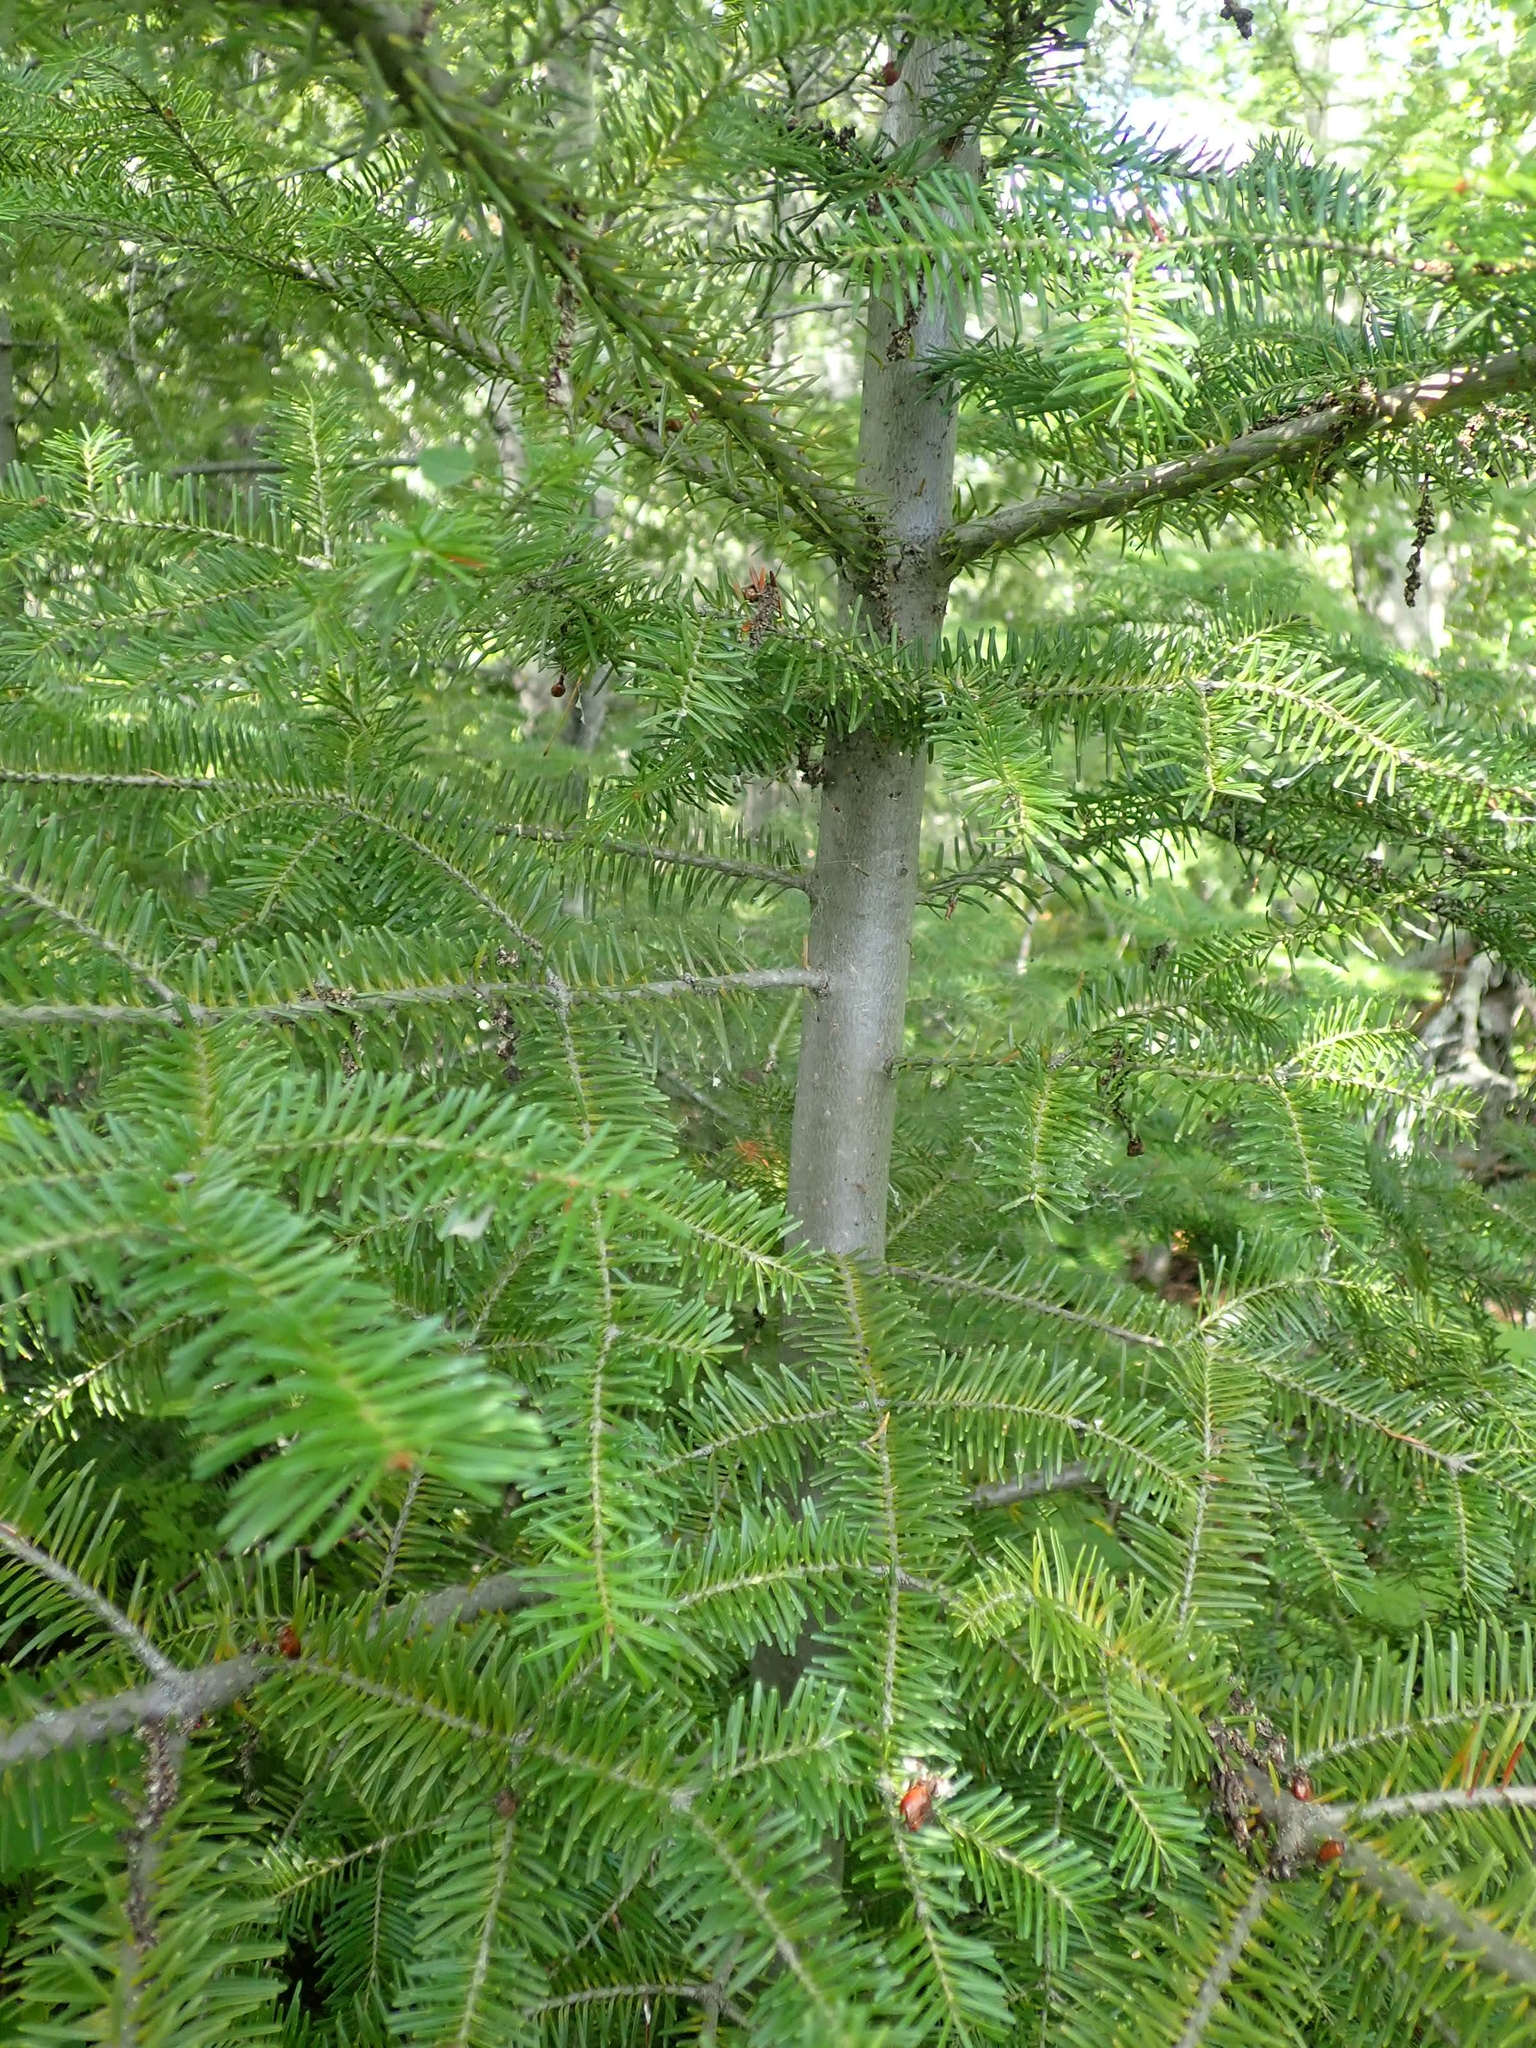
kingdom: Plantae
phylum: Tracheophyta
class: Pinopsida
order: Pinales
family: Pinaceae
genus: Abies
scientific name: Abies balsamea
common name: Balsam fir
